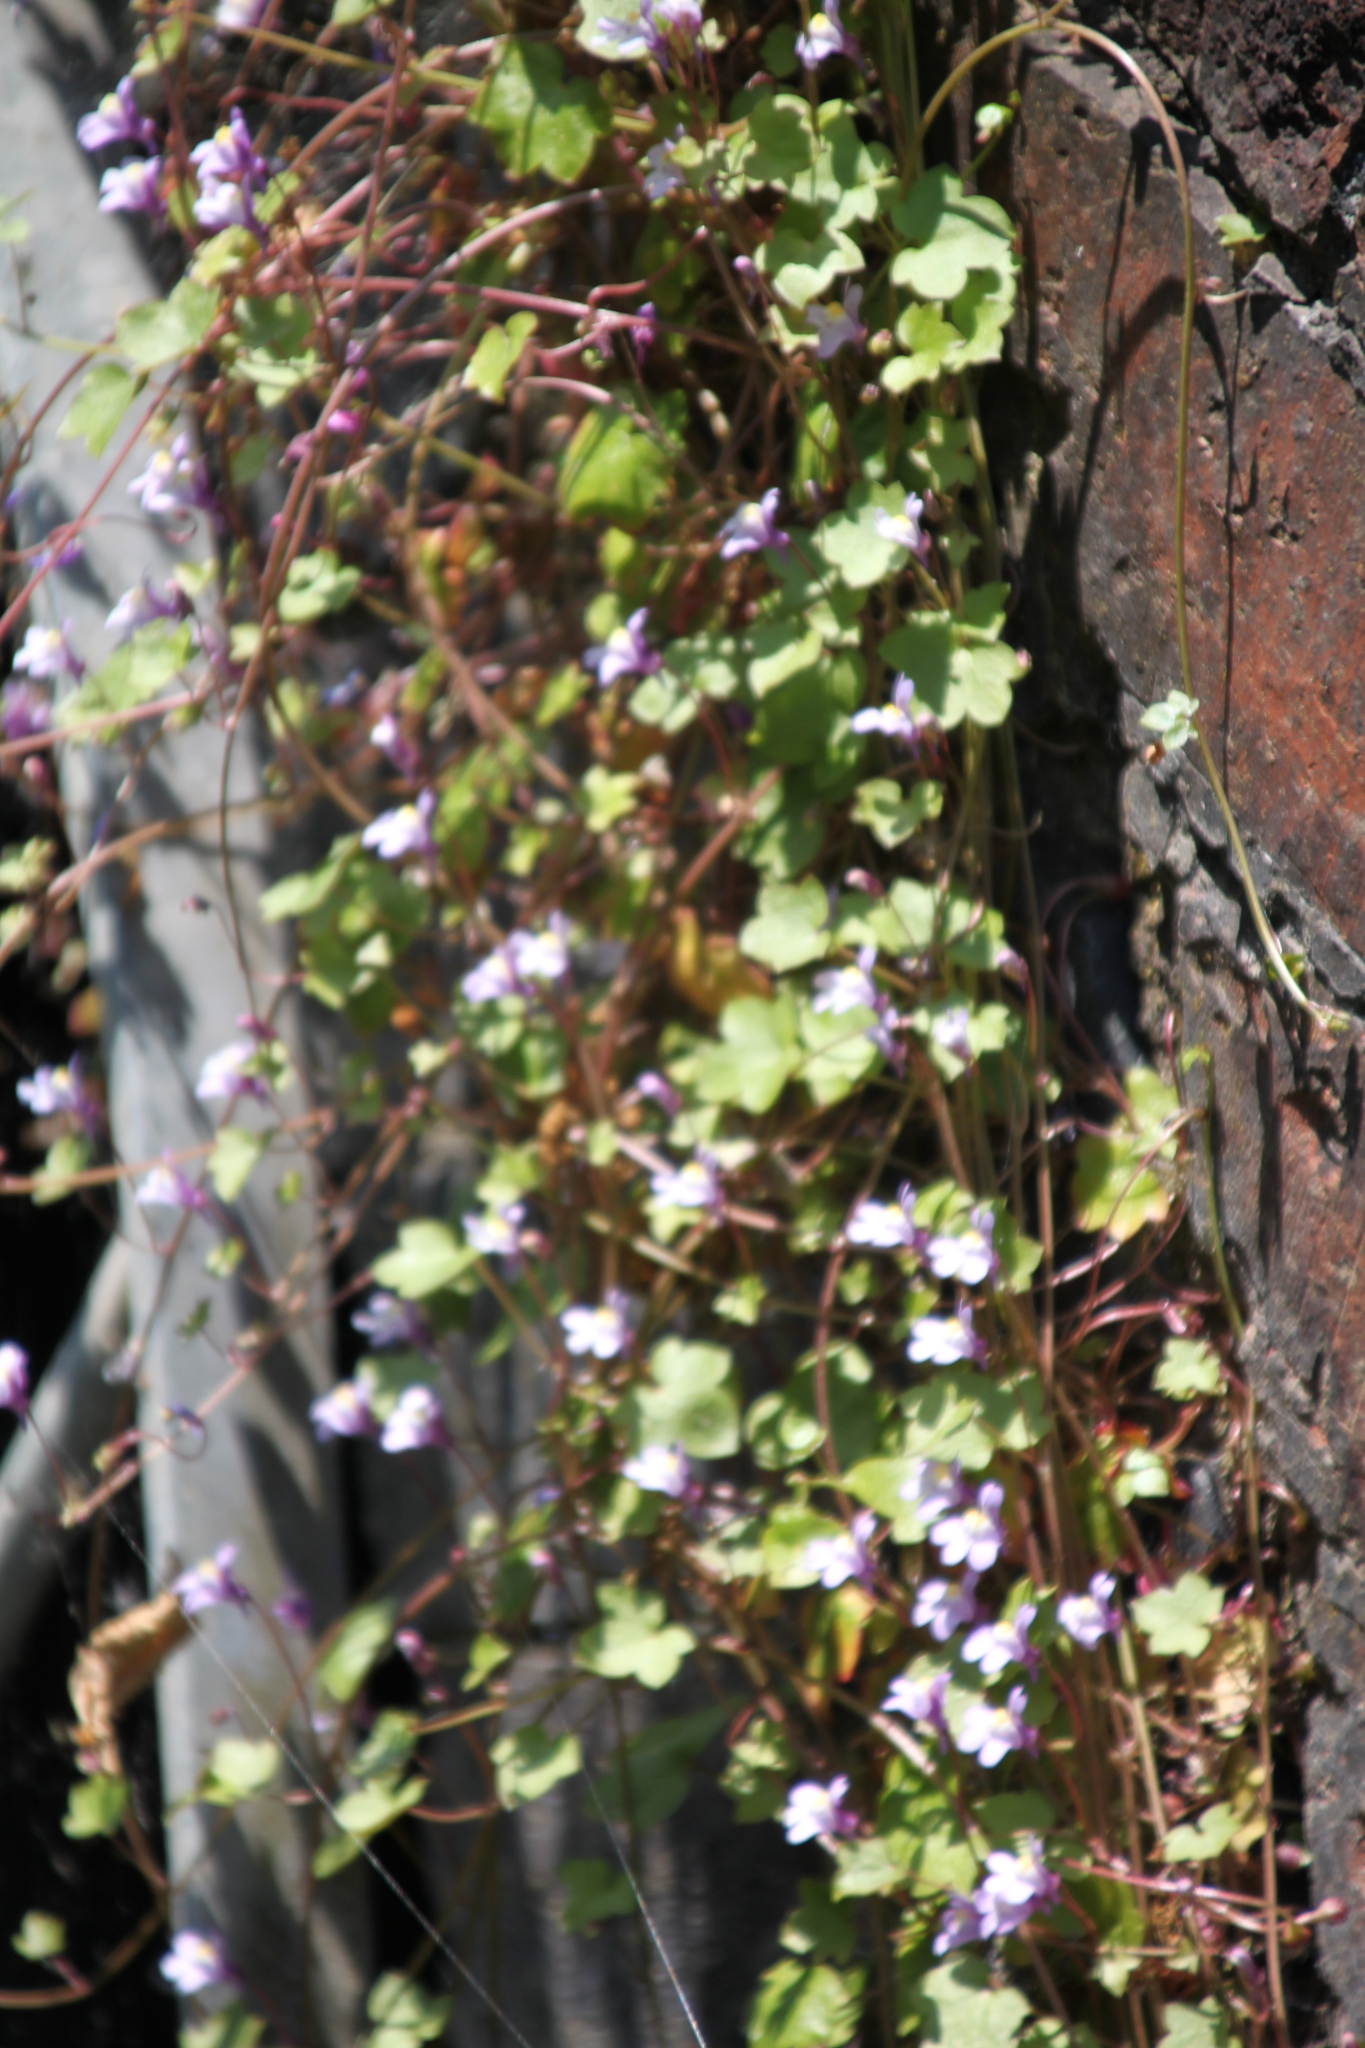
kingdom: Plantae
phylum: Tracheophyta
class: Magnoliopsida
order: Lamiales
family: Plantaginaceae
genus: Cymbalaria
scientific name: Cymbalaria muralis
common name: Ivy-leaved toadflax
